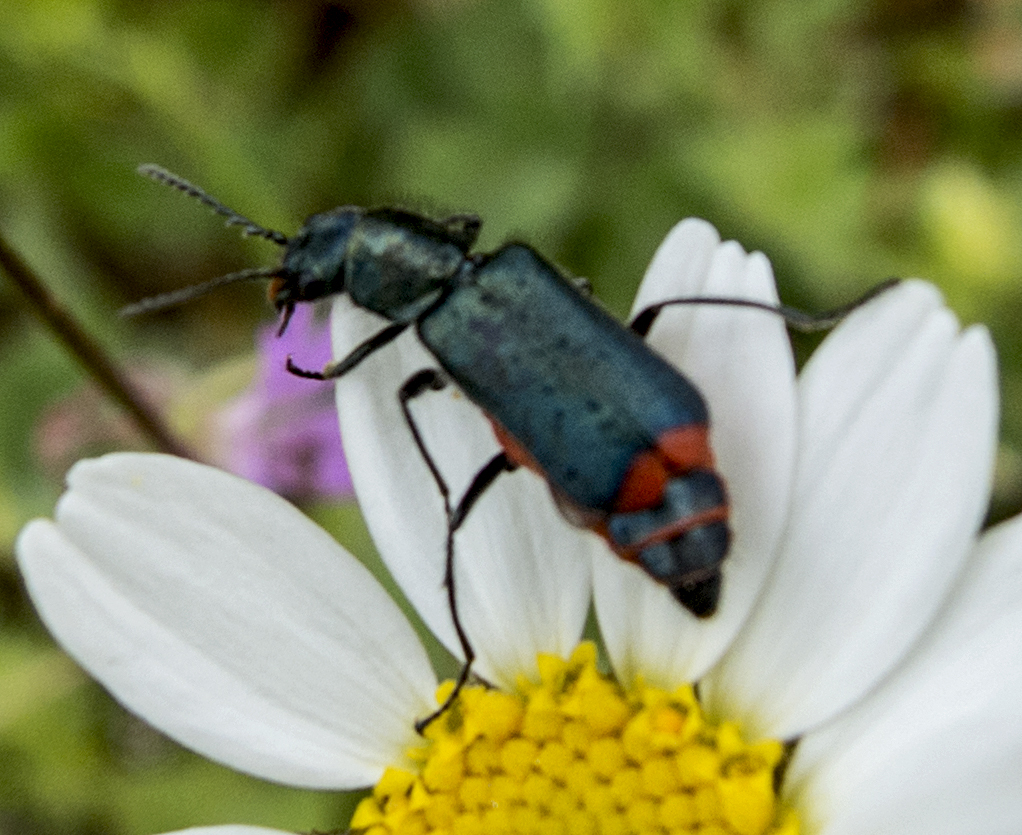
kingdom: Animalia
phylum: Arthropoda
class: Insecta
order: Coleoptera
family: Malachiidae
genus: Haplomalachius
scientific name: Haplomalachius flabellatus
